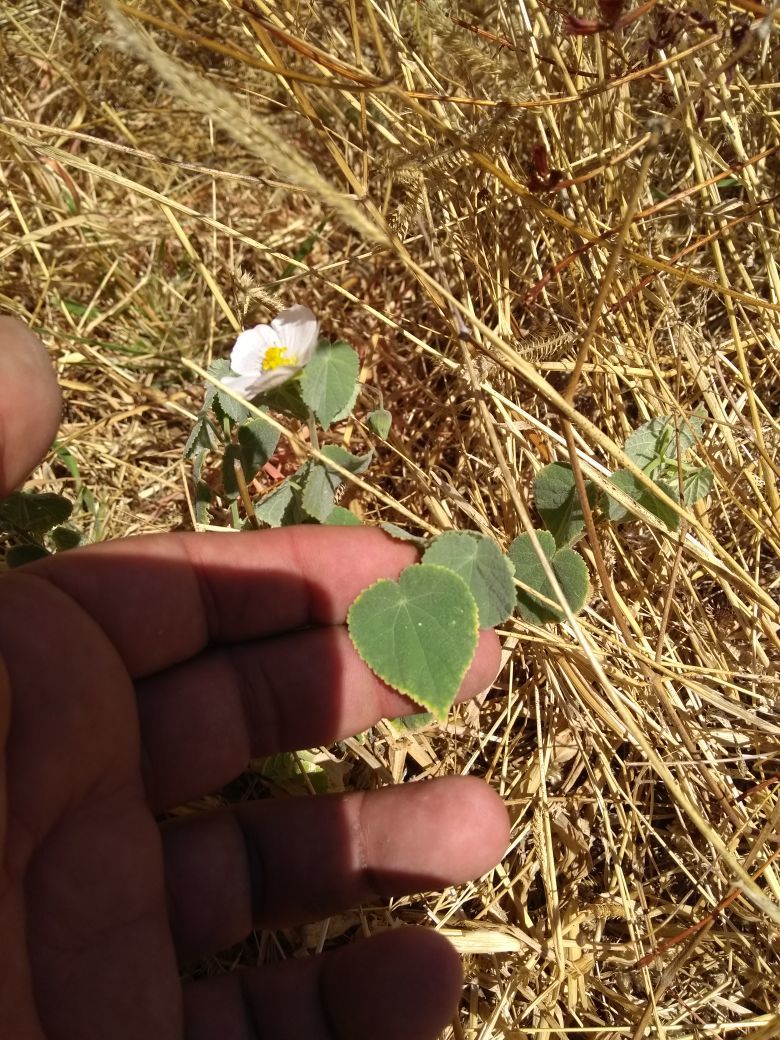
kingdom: Plantae
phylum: Tracheophyta
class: Magnoliopsida
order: Malvales
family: Malvaceae
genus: Herissantia
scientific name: Herissantia crispa
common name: Bladdermallow
